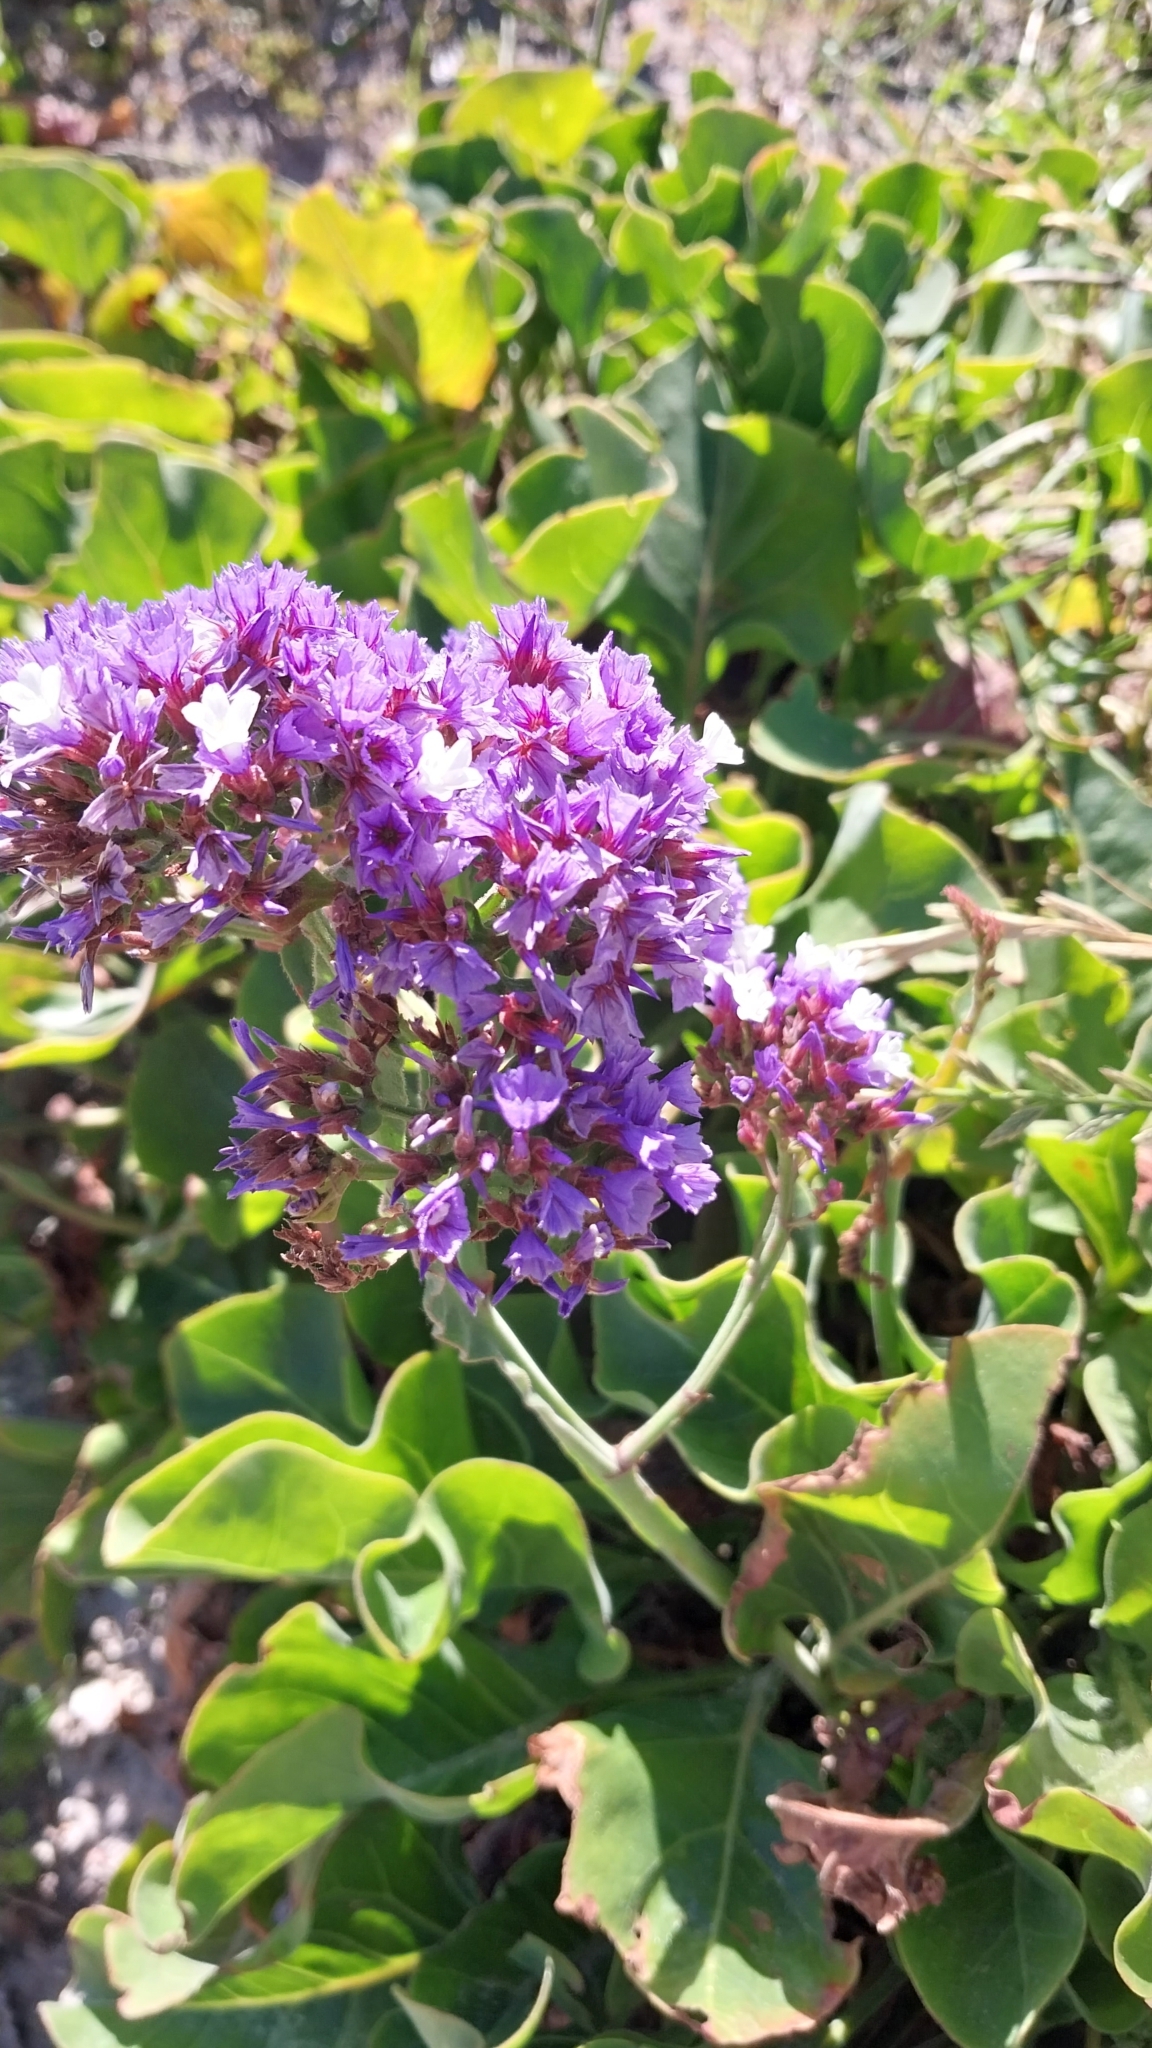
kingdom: Plantae
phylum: Tracheophyta
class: Magnoliopsida
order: Caryophyllales
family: Plumbaginaceae
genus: Limonium
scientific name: Limonium perezii
